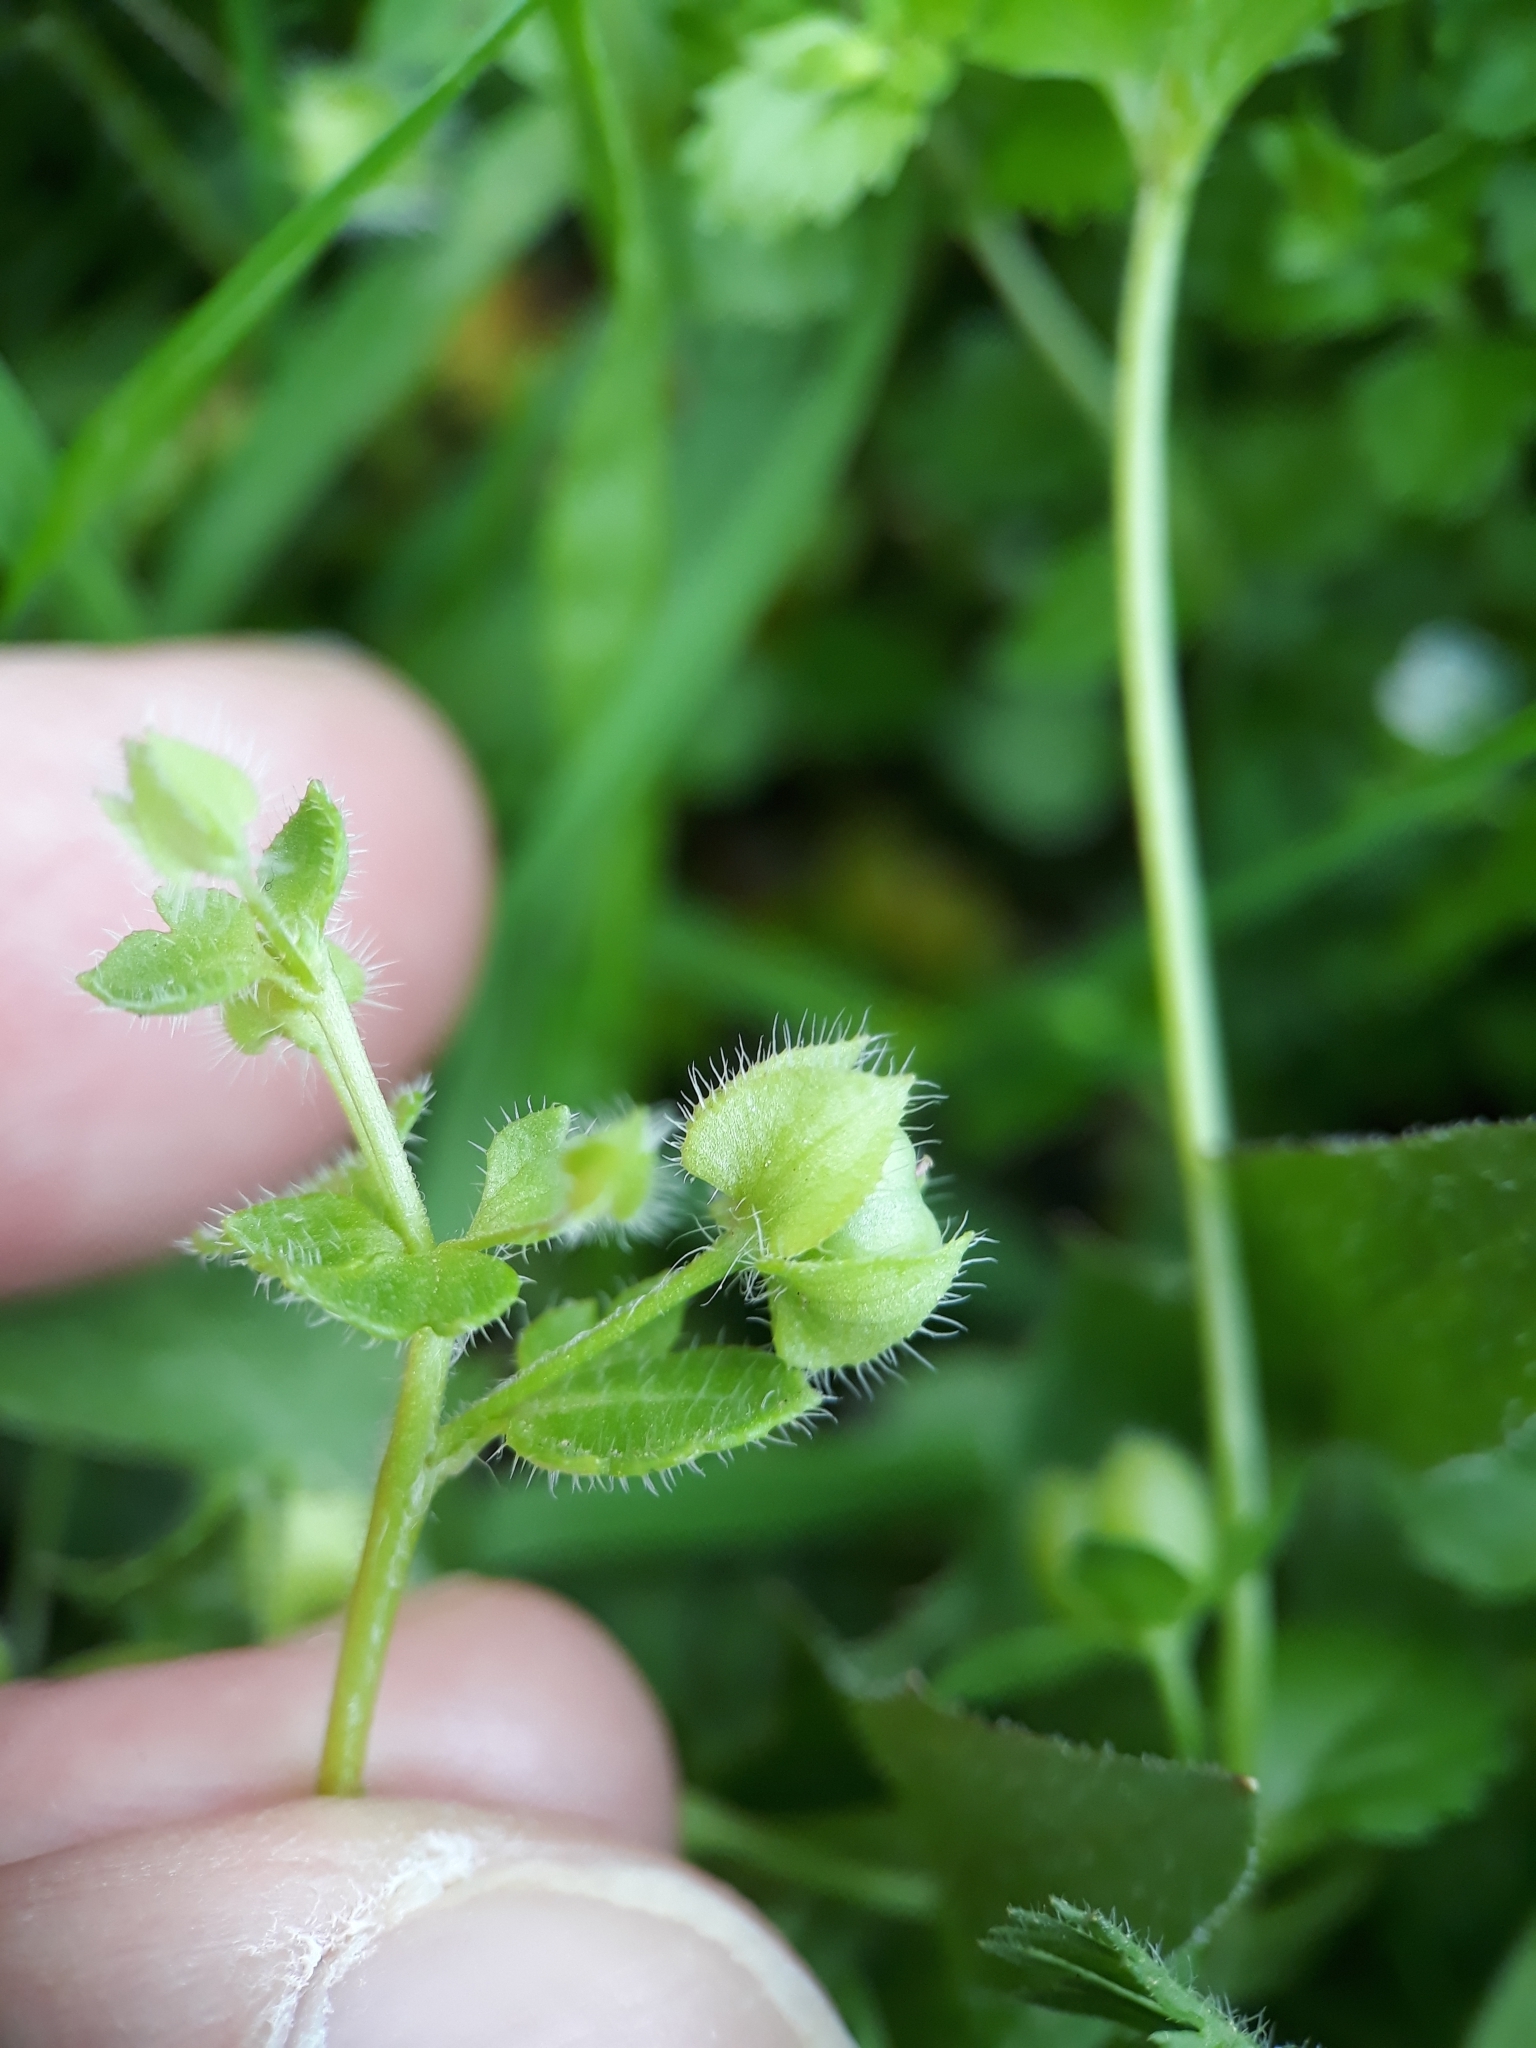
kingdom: Plantae
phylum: Tracheophyta
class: Magnoliopsida
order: Lamiales
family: Plantaginaceae
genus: Veronica
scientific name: Veronica hederifolia
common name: Ivy-leaved speedwell
